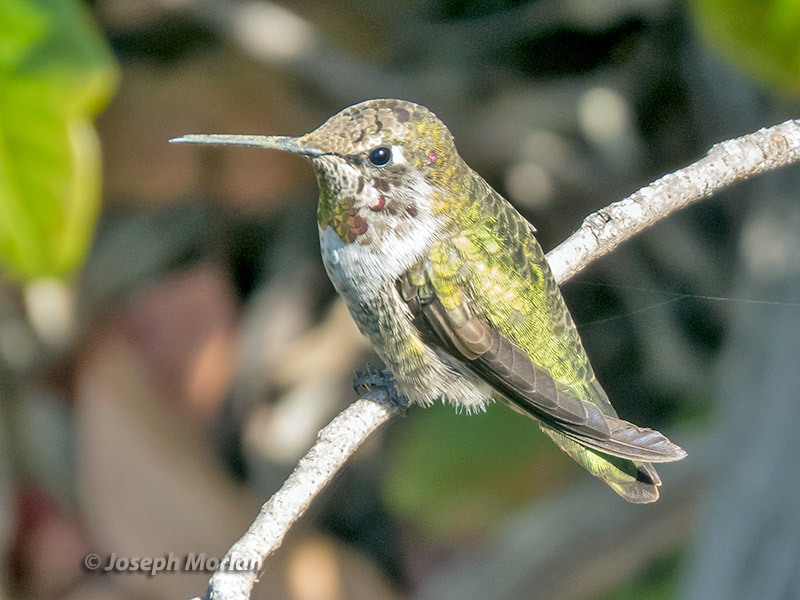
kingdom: Animalia
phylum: Chordata
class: Aves
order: Apodiformes
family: Trochilidae
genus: Calypte
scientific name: Calypte anna
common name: Anna's hummingbird
